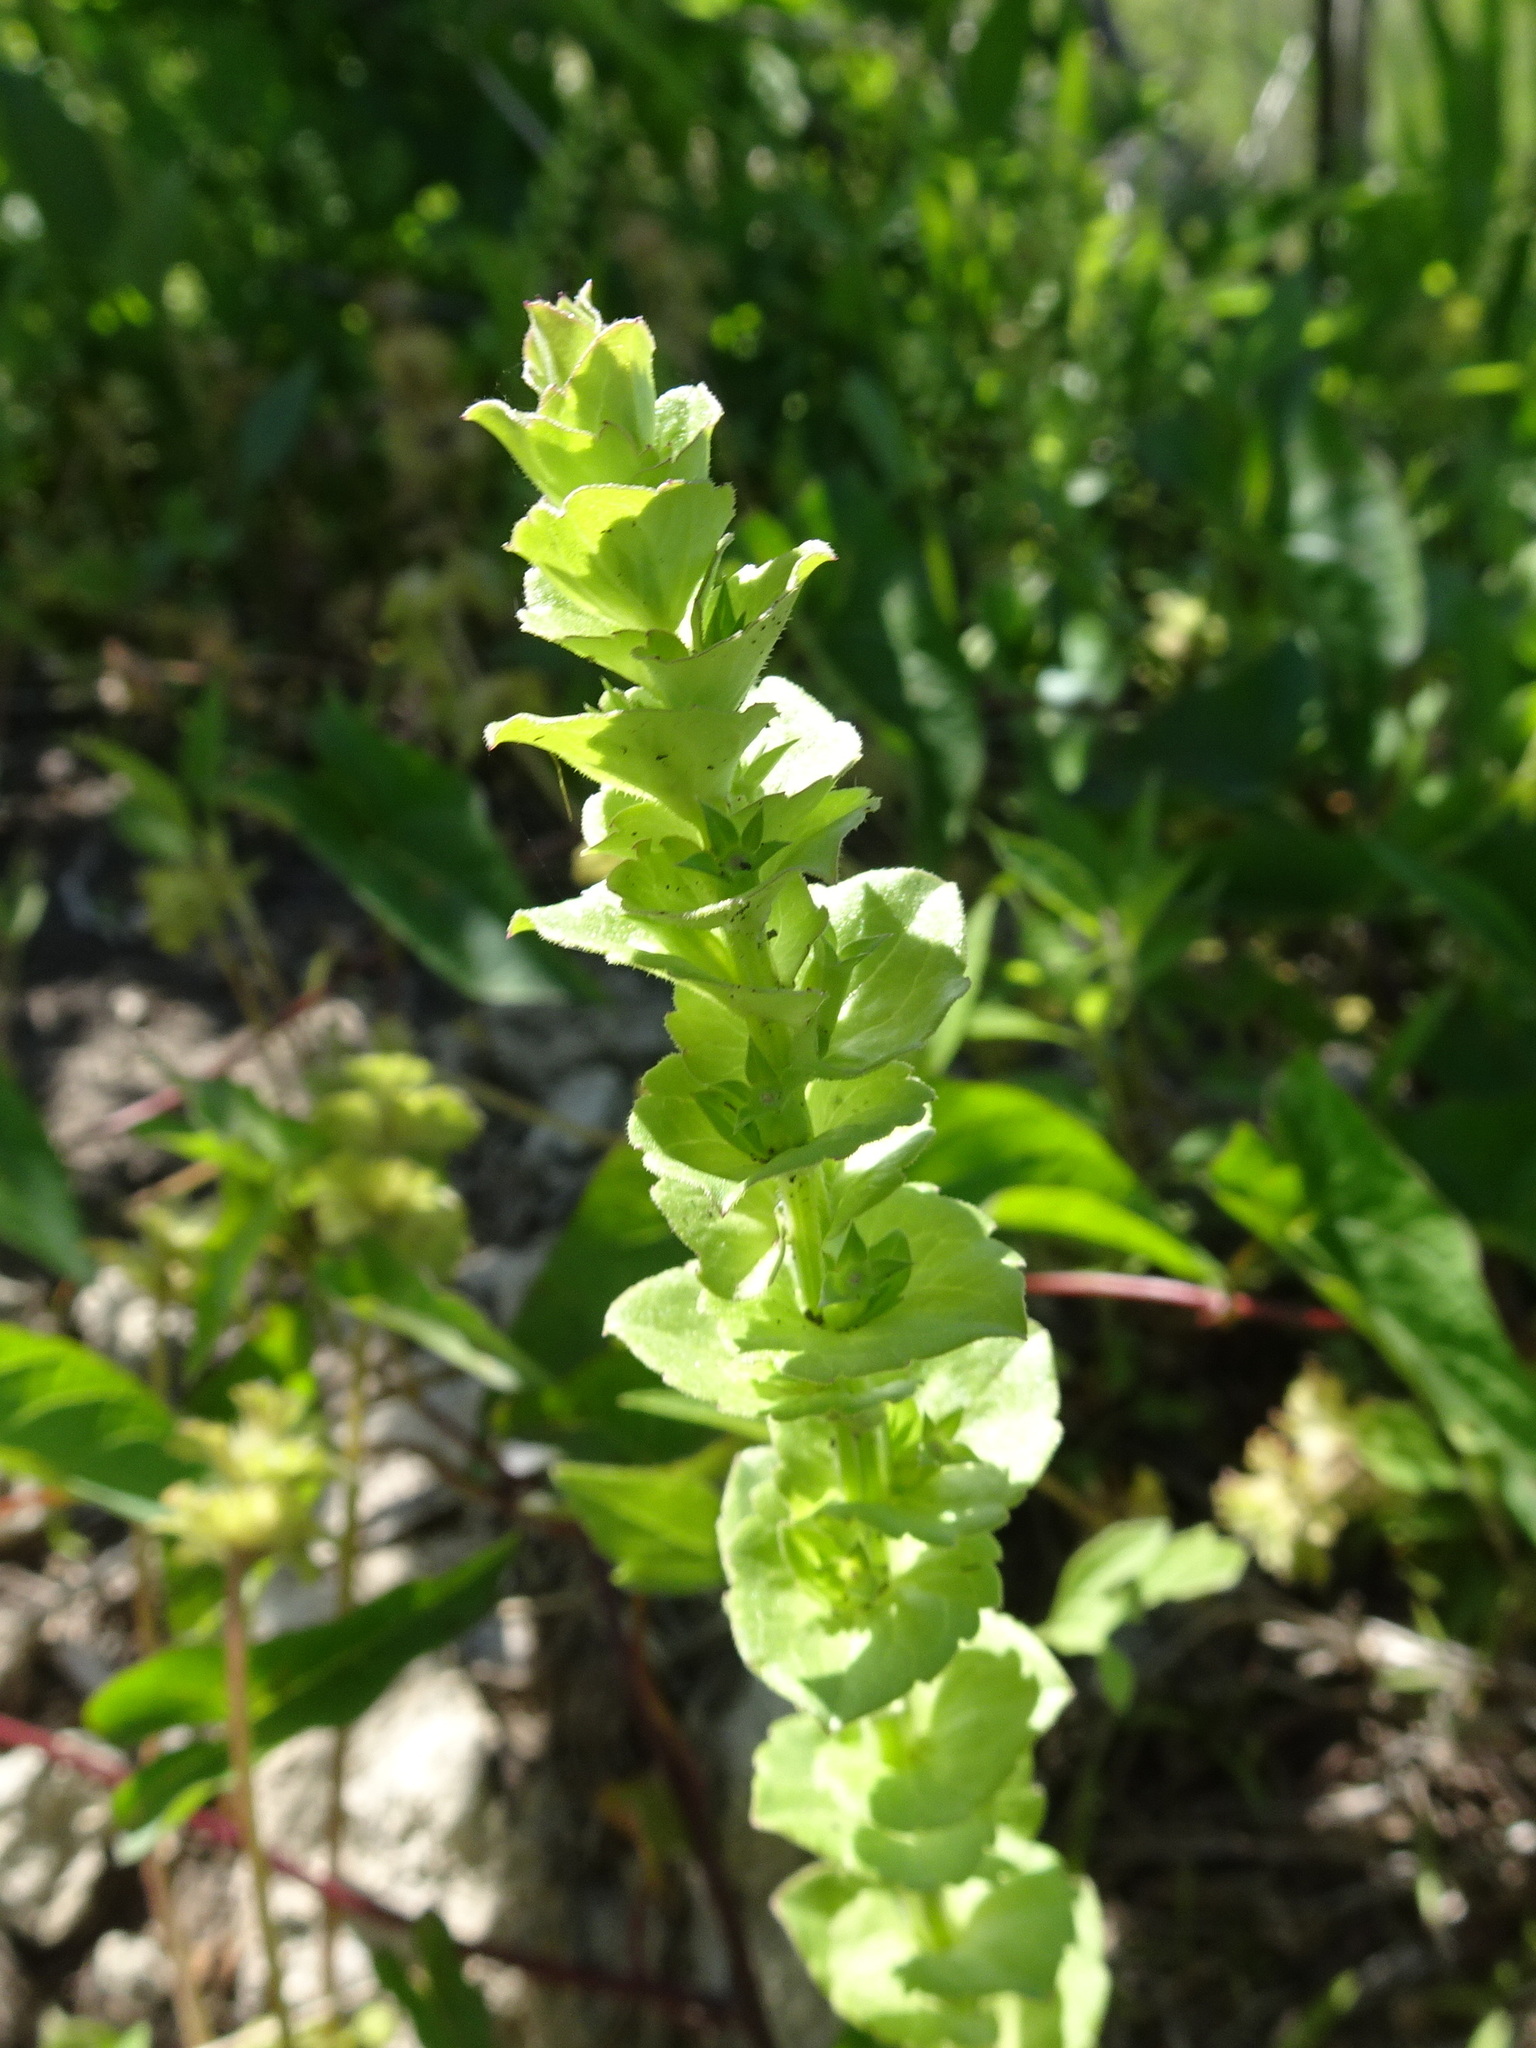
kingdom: Plantae
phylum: Tracheophyta
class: Magnoliopsida
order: Asterales
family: Campanulaceae
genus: Triodanis
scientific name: Triodanis perfoliata
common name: Clasping venus' looking-glass
